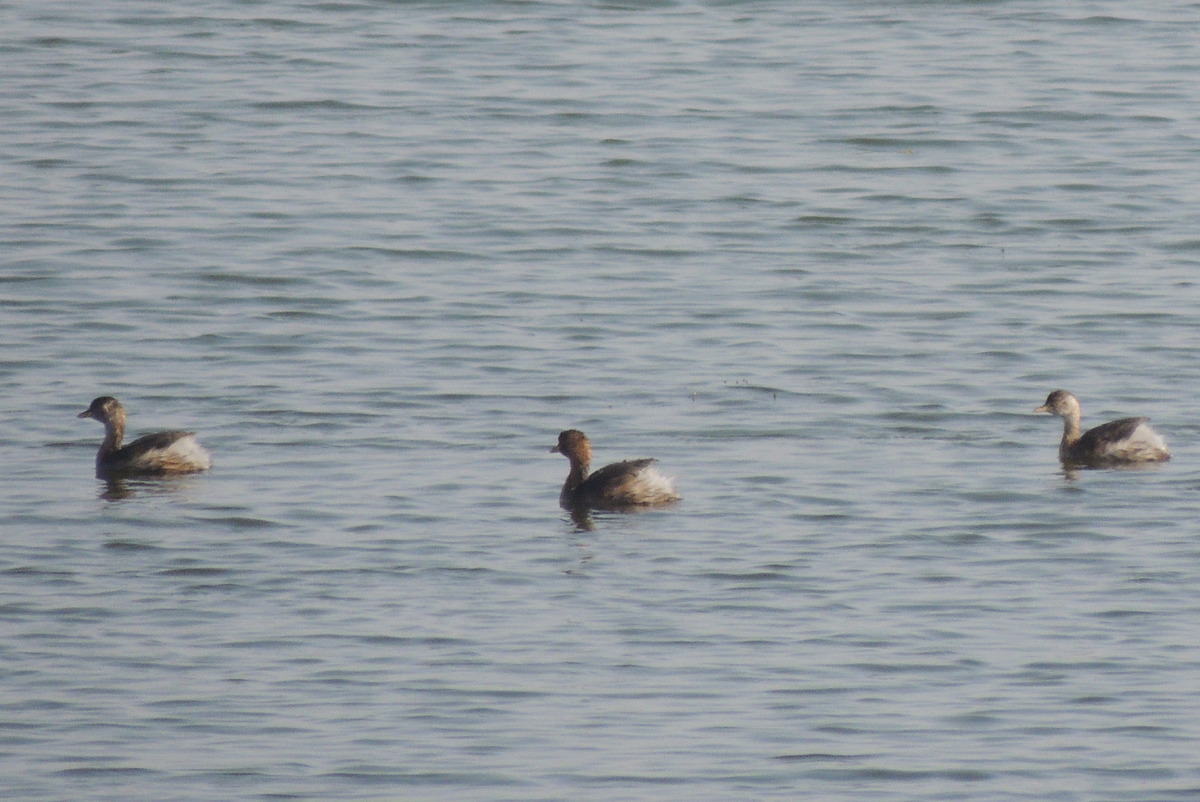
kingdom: Animalia
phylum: Chordata
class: Aves
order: Podicipediformes
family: Podicipedidae
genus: Tachybaptus
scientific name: Tachybaptus ruficollis
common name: Little grebe
